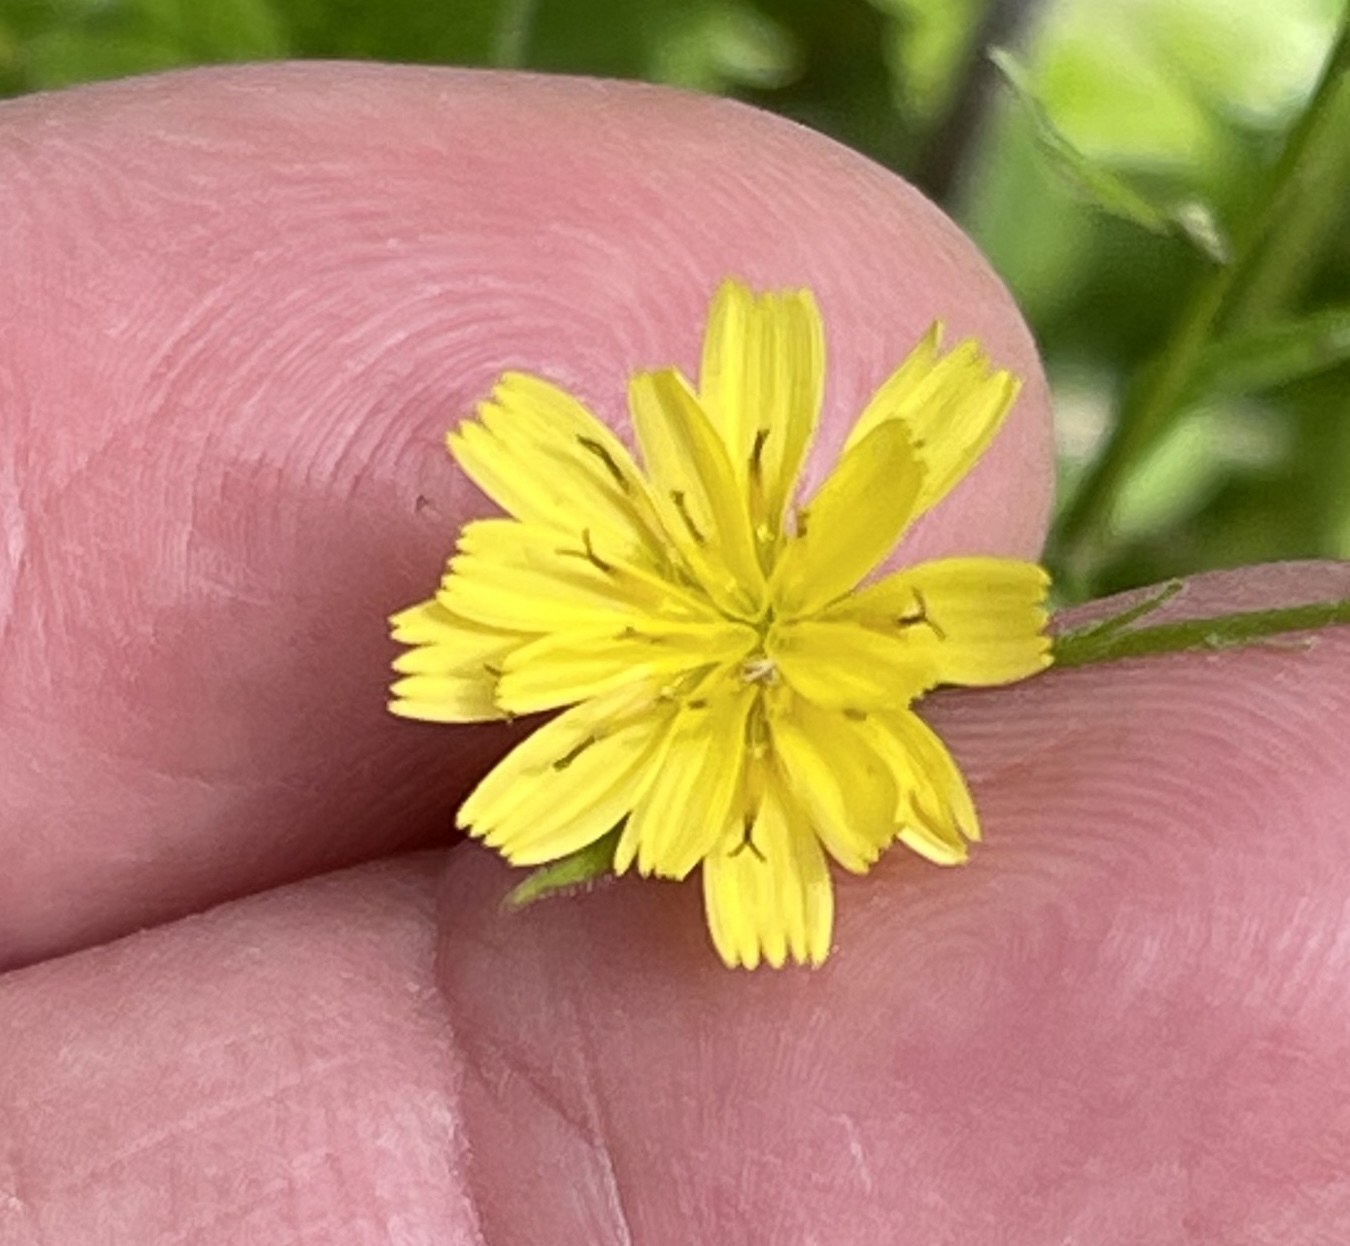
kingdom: Plantae
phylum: Tracheophyta
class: Magnoliopsida
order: Asterales
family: Asteraceae
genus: Lapsana
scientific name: Lapsana communis
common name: Nipplewort
